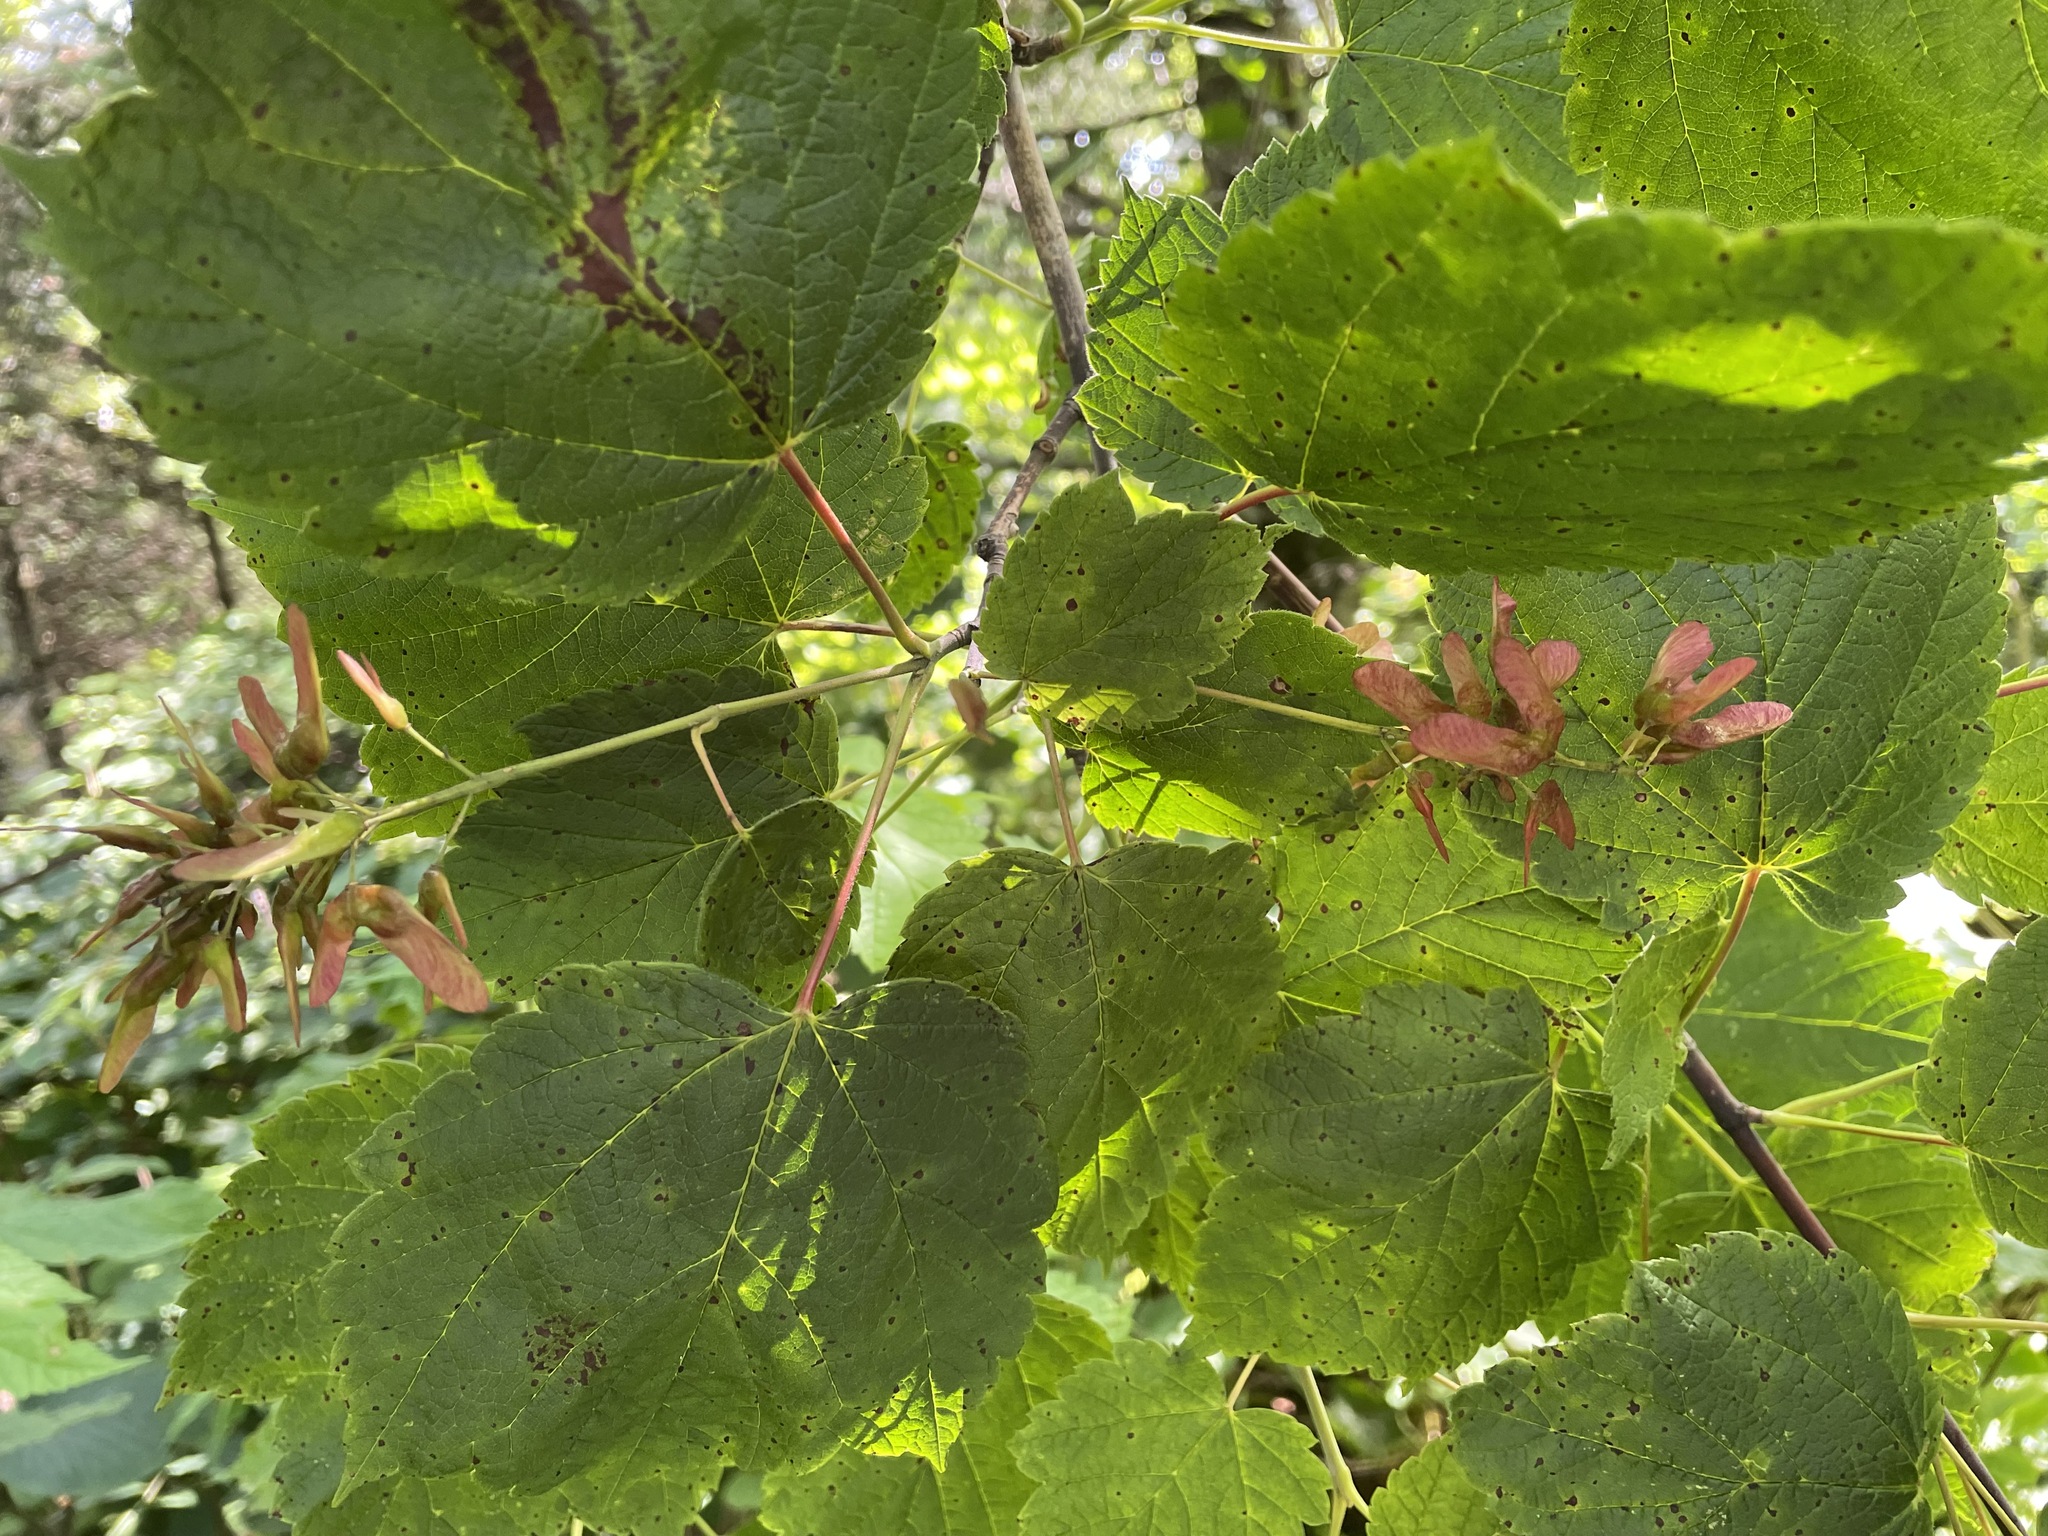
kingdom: Plantae
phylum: Tracheophyta
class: Magnoliopsida
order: Sapindales
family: Sapindaceae
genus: Acer
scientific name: Acer spicatum
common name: Mountain maple
